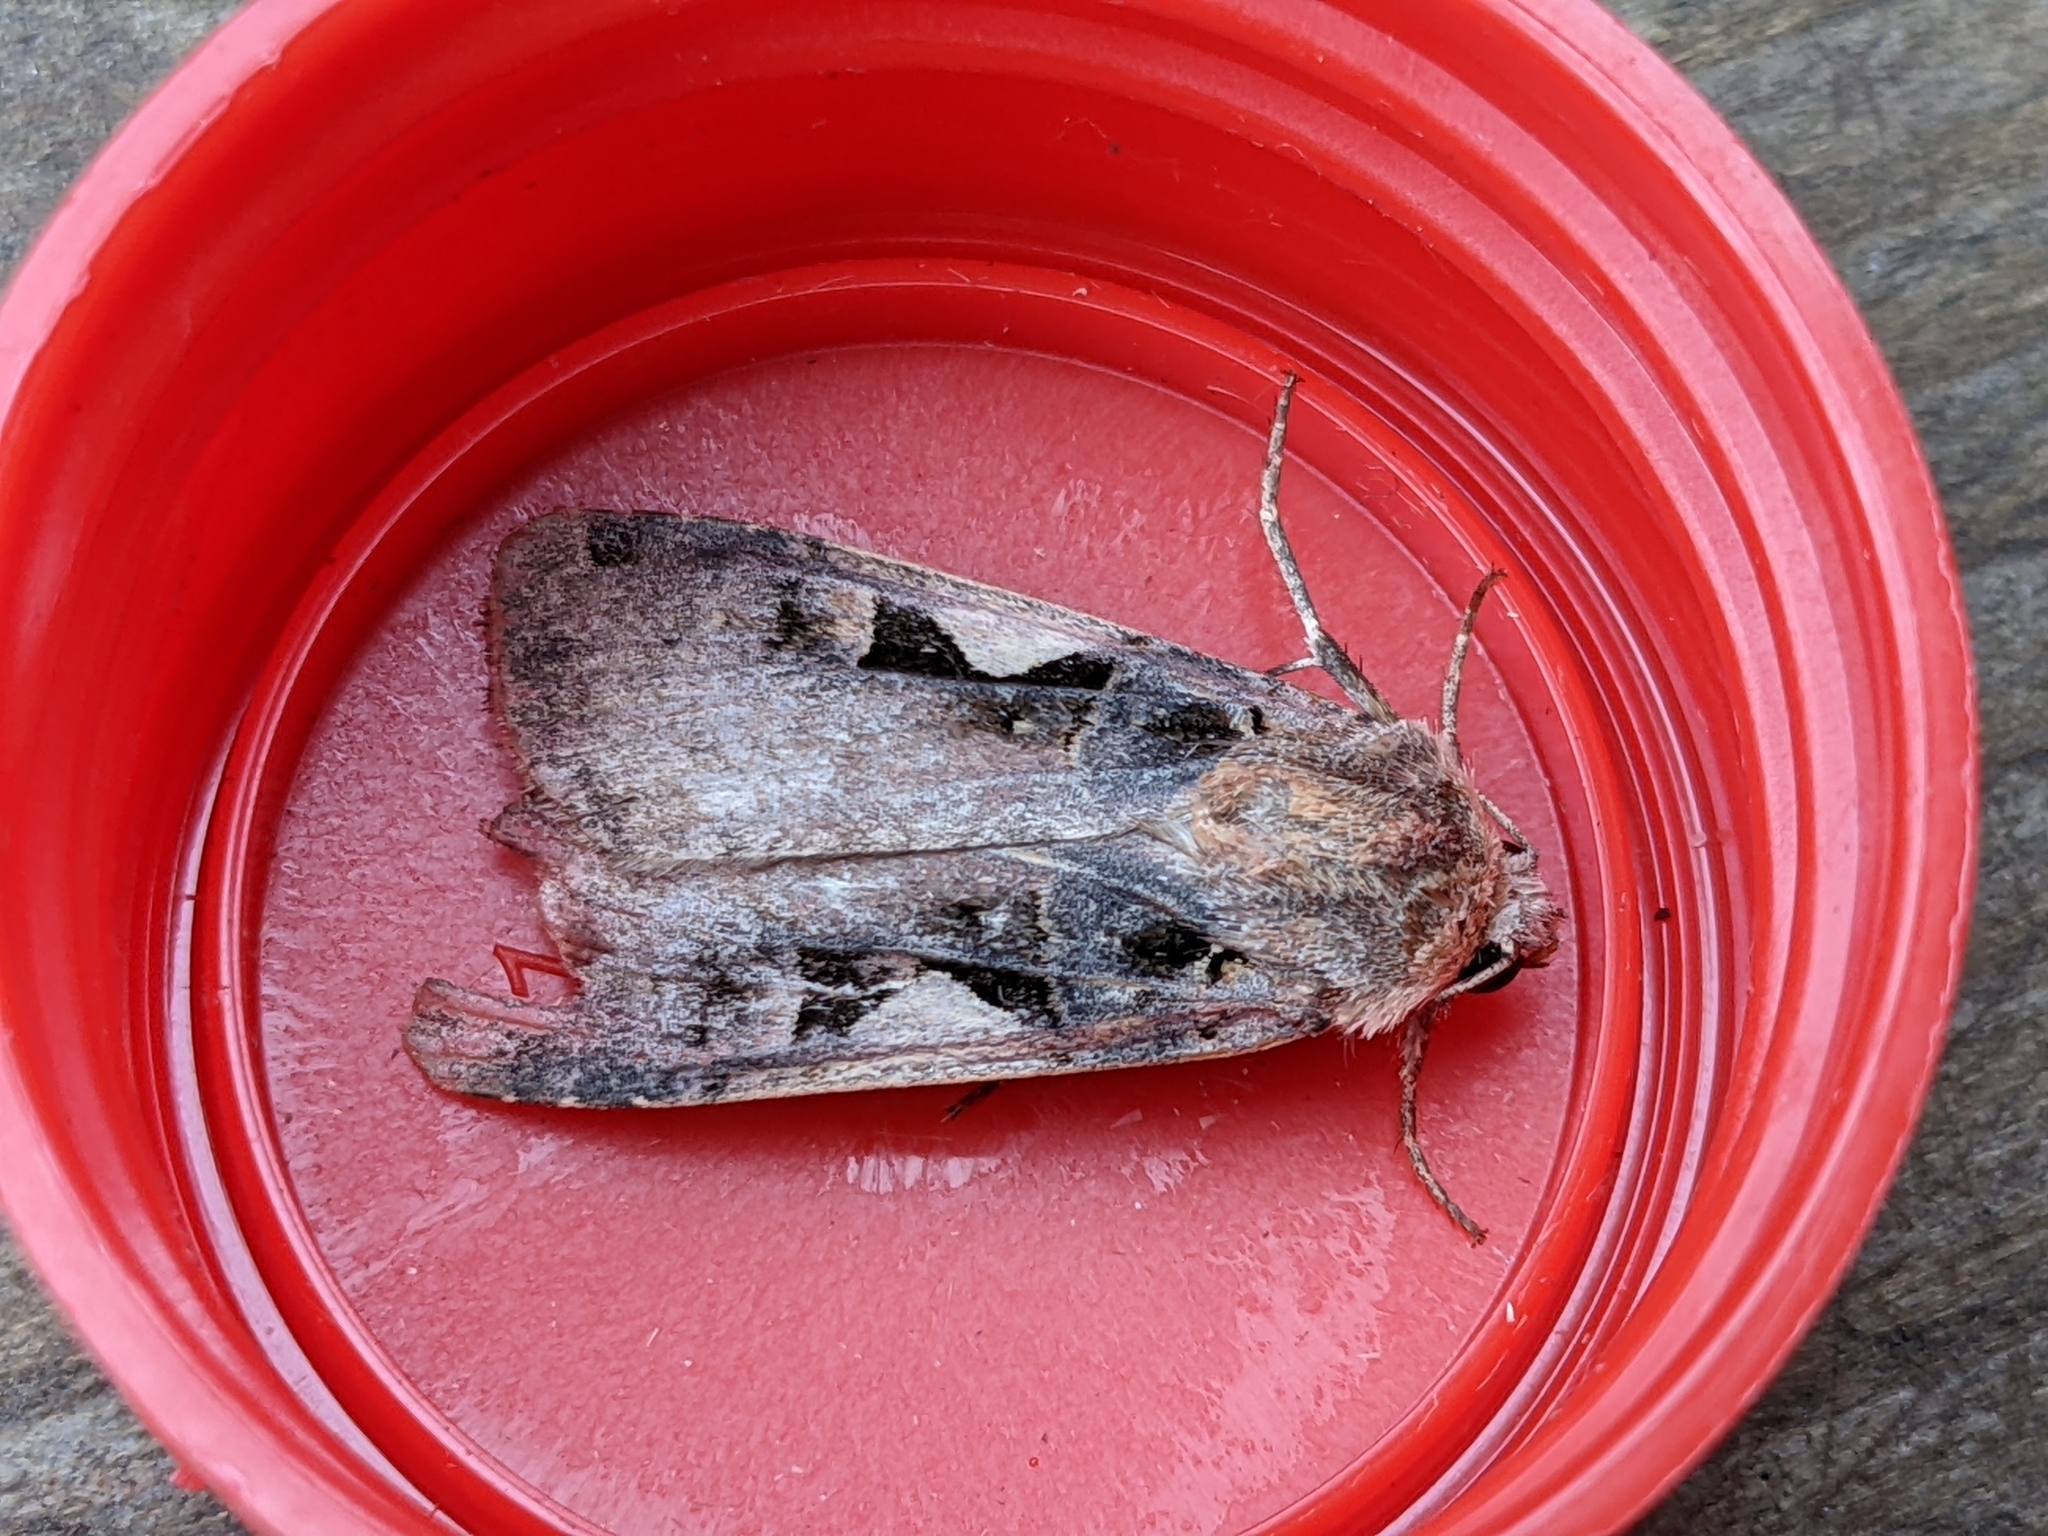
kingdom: Animalia
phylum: Arthropoda
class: Insecta
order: Lepidoptera
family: Noctuidae
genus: Xestia
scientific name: Xestia c-nigrum
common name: Setaceous hebrew character
